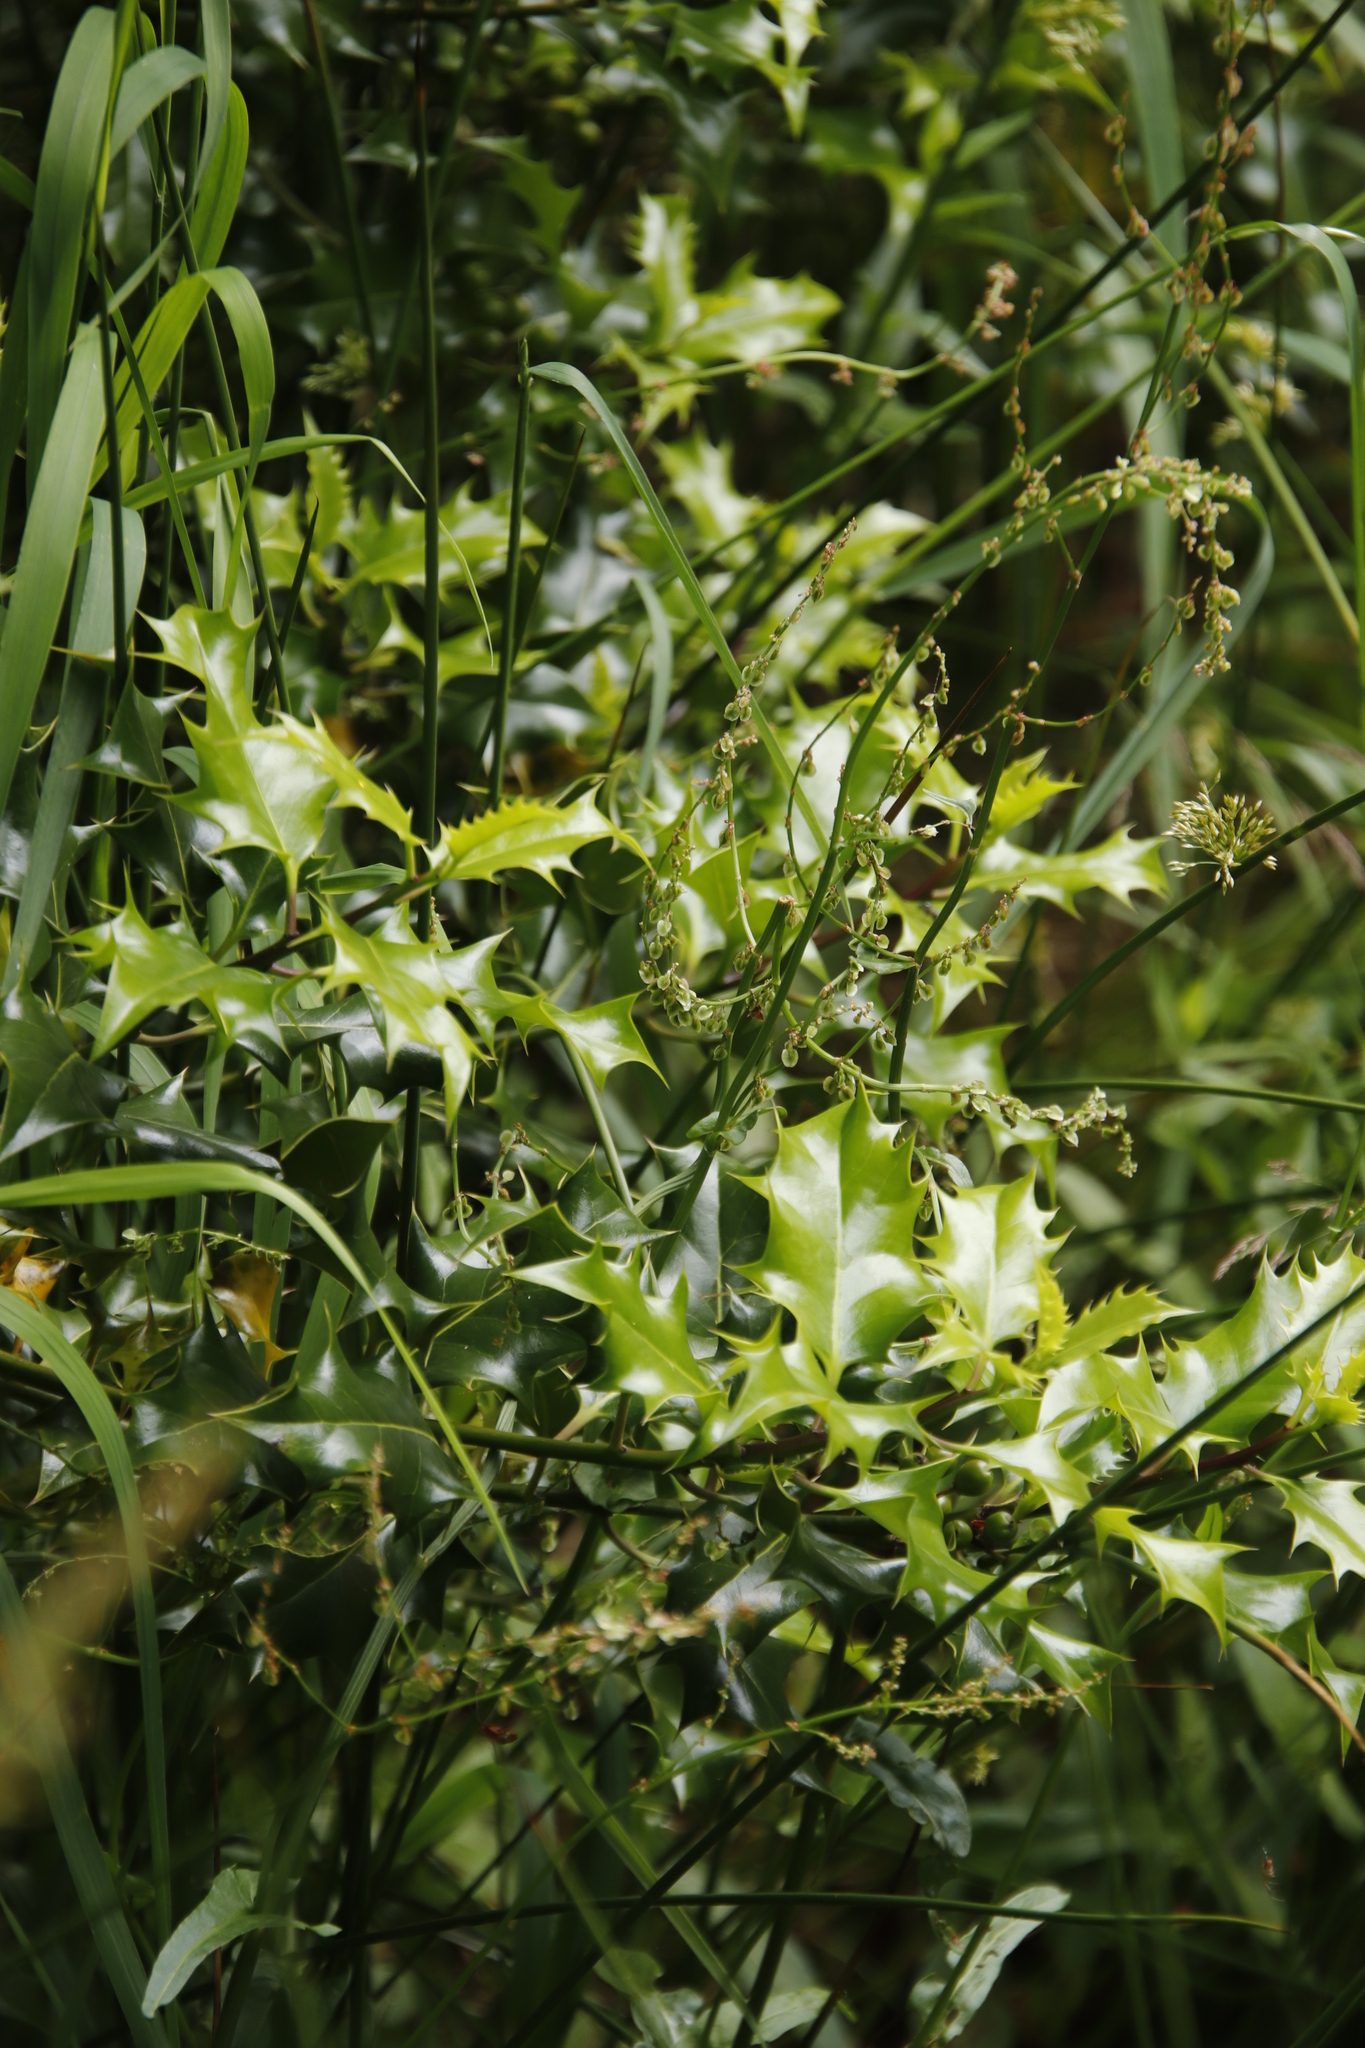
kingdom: Plantae
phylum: Tracheophyta
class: Magnoliopsida
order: Aquifoliales
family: Aquifoliaceae
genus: Ilex
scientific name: Ilex aquifolium
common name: English holly
